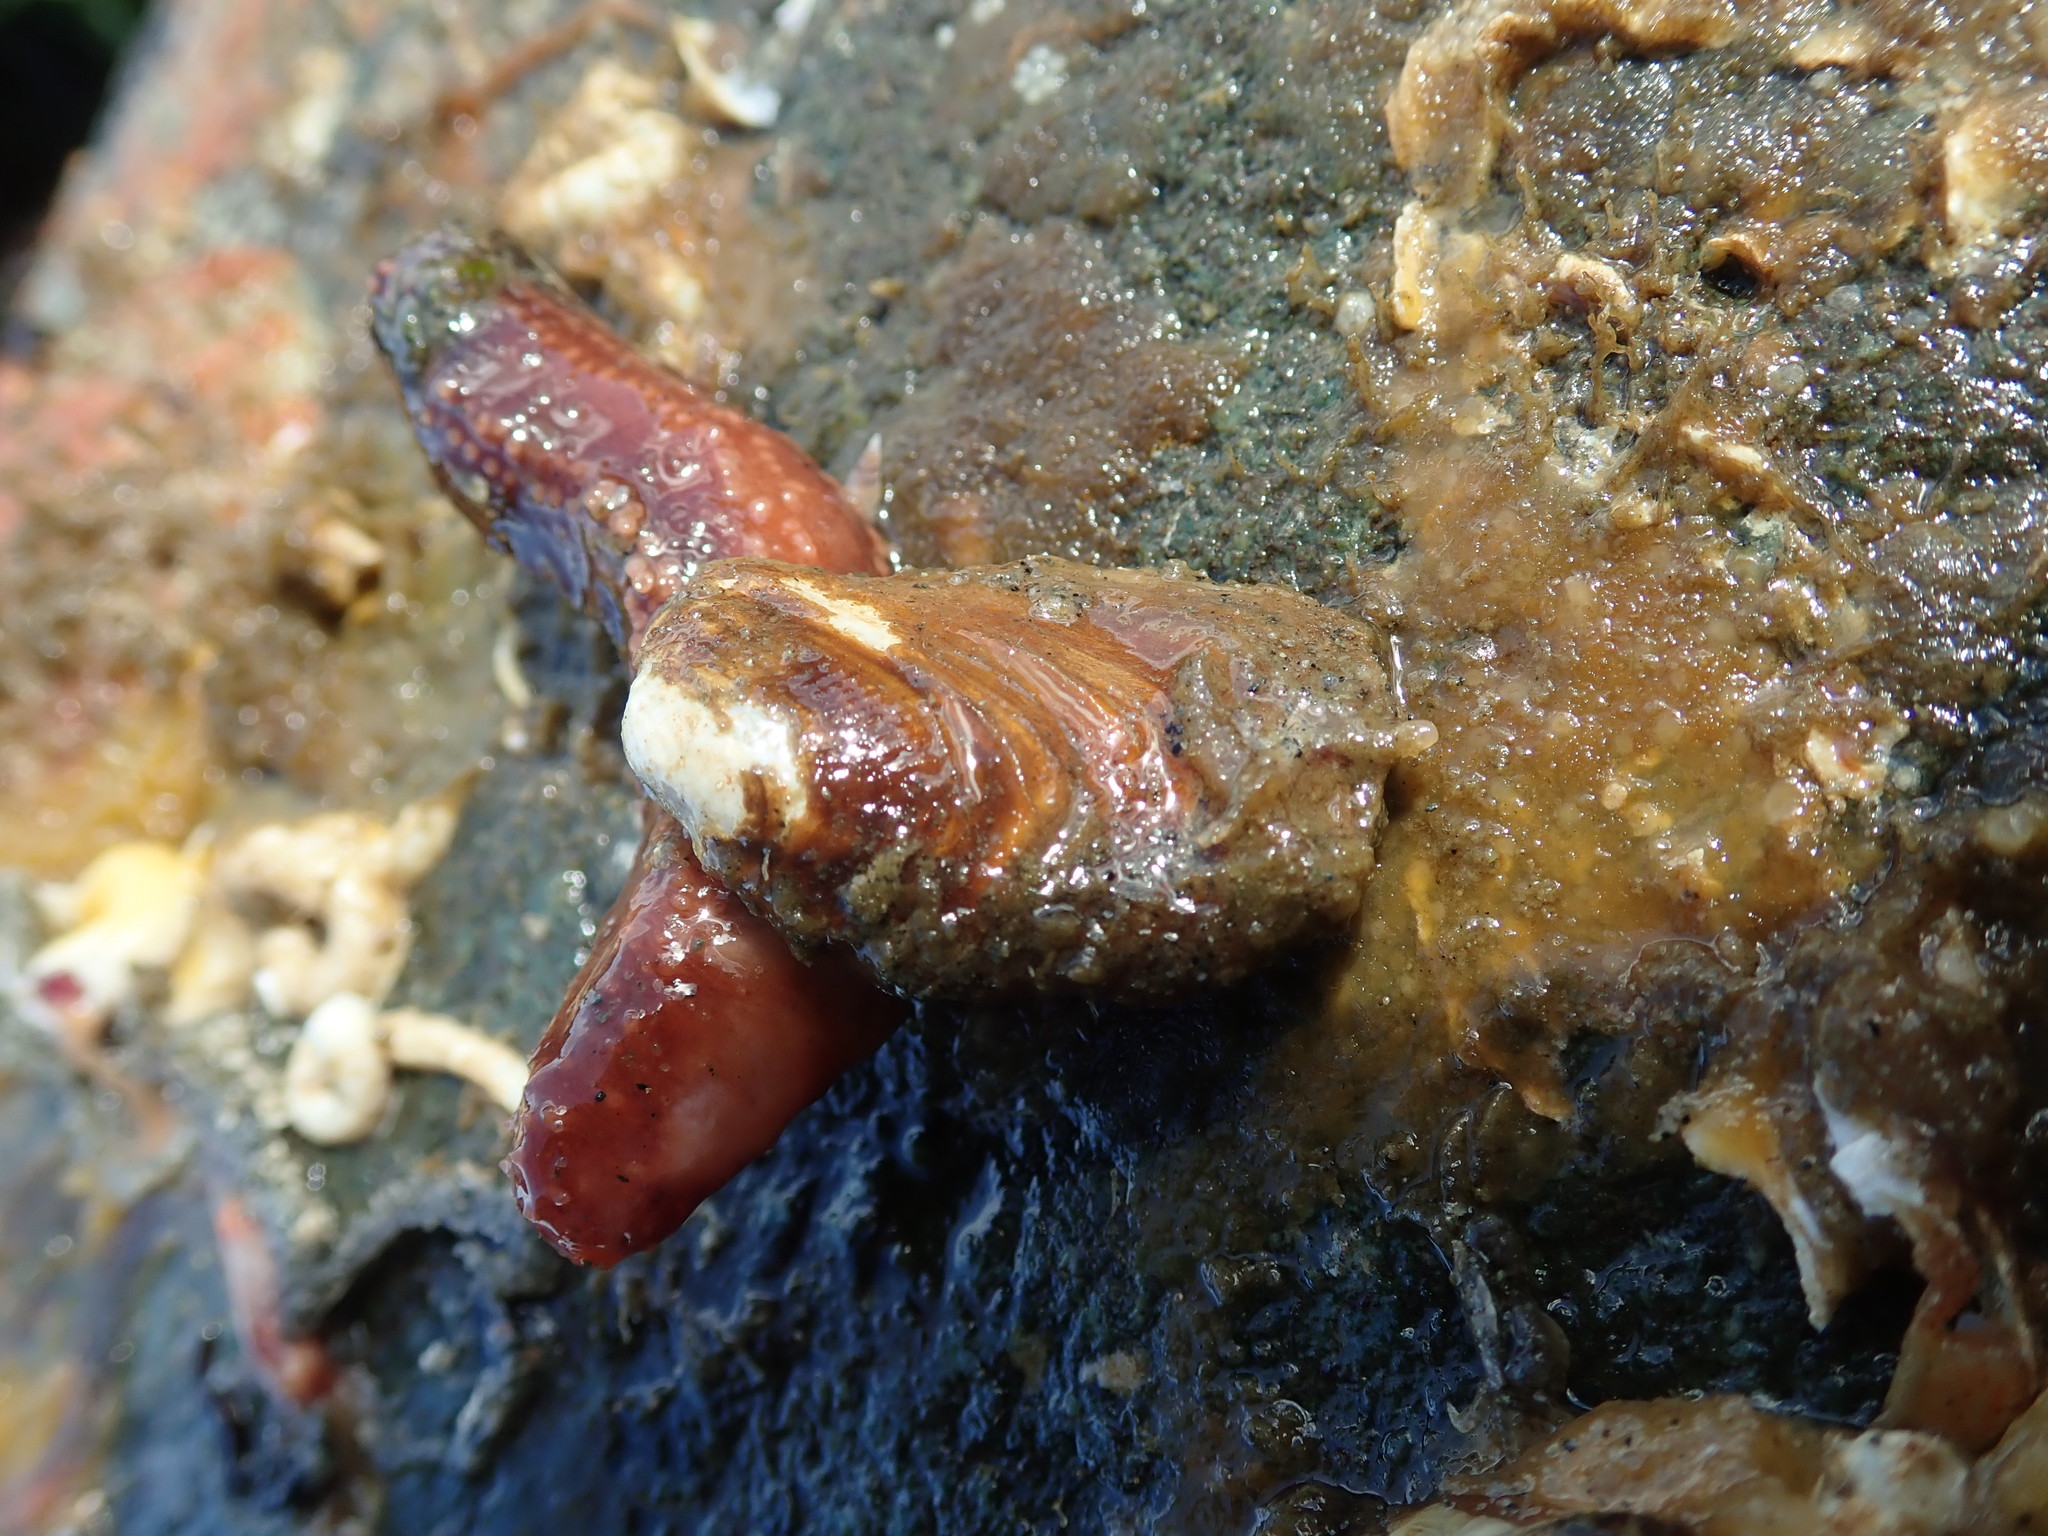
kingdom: Animalia
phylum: Mollusca
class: Bivalvia
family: Lyonsiidae
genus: Entodesma
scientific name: Entodesma navicula
